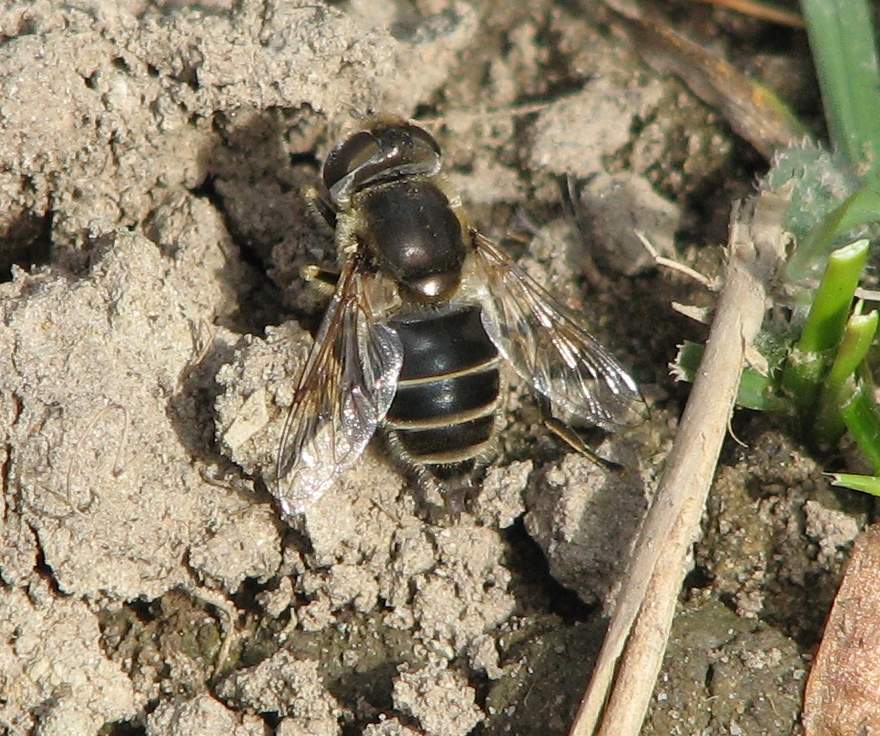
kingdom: Animalia
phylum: Arthropoda
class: Insecta
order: Diptera
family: Syrphidae
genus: Eoseristalis
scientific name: Eoseristalis
